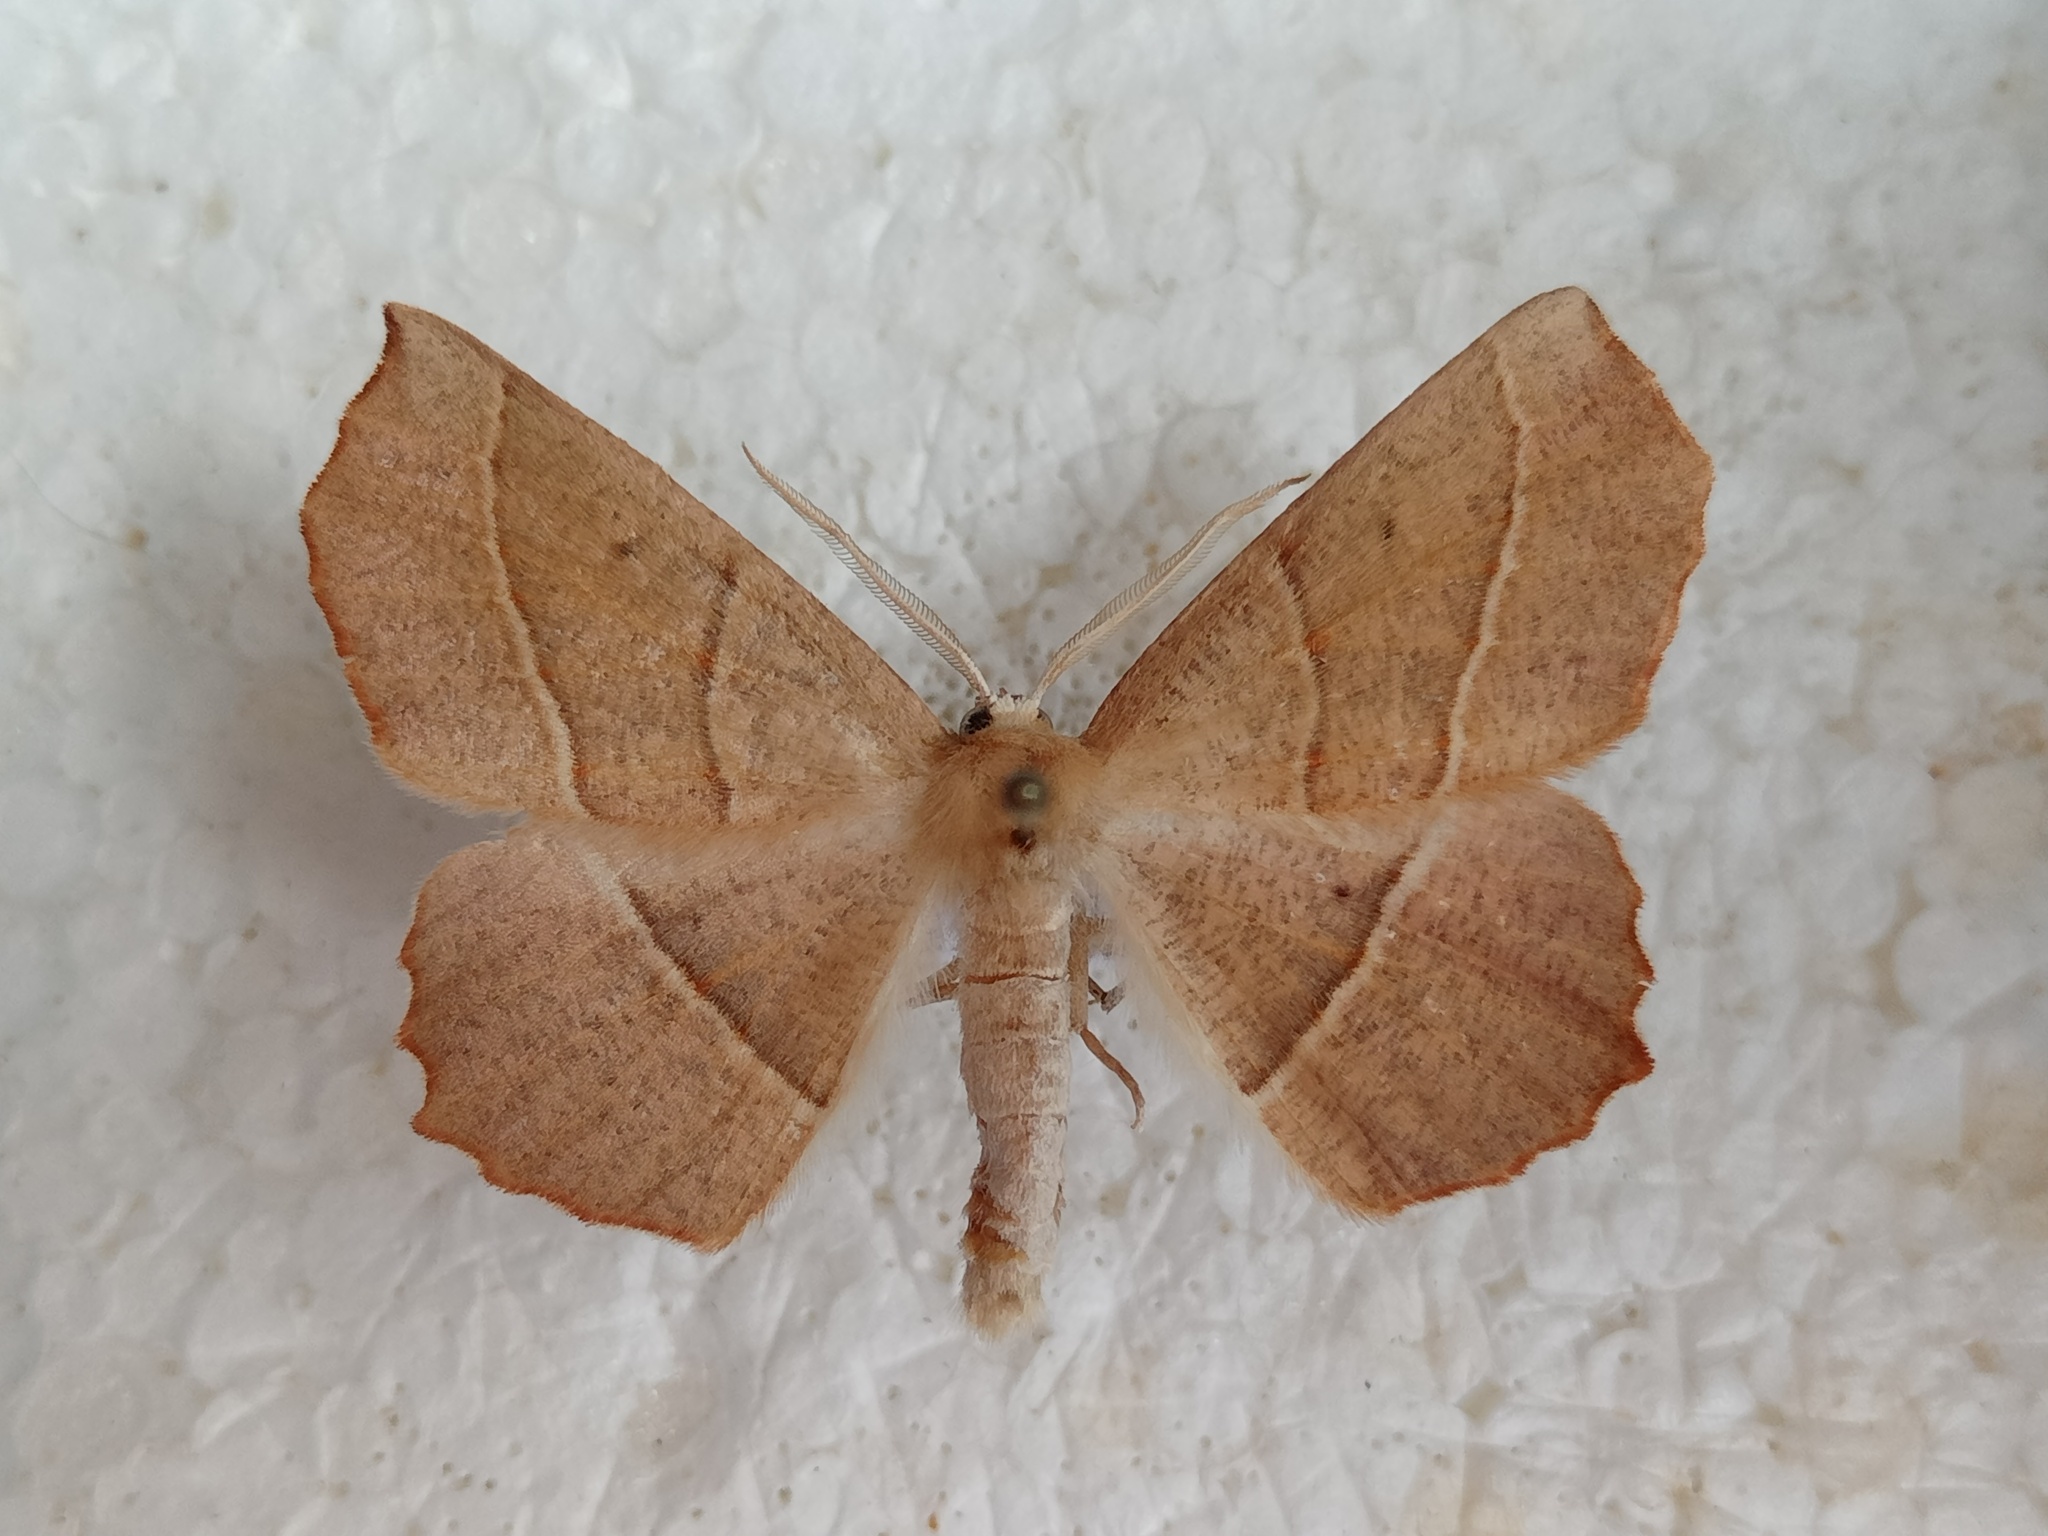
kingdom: Animalia
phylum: Arthropoda
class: Insecta
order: Lepidoptera
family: Geometridae
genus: Gerinia
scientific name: Gerinia honoraria
